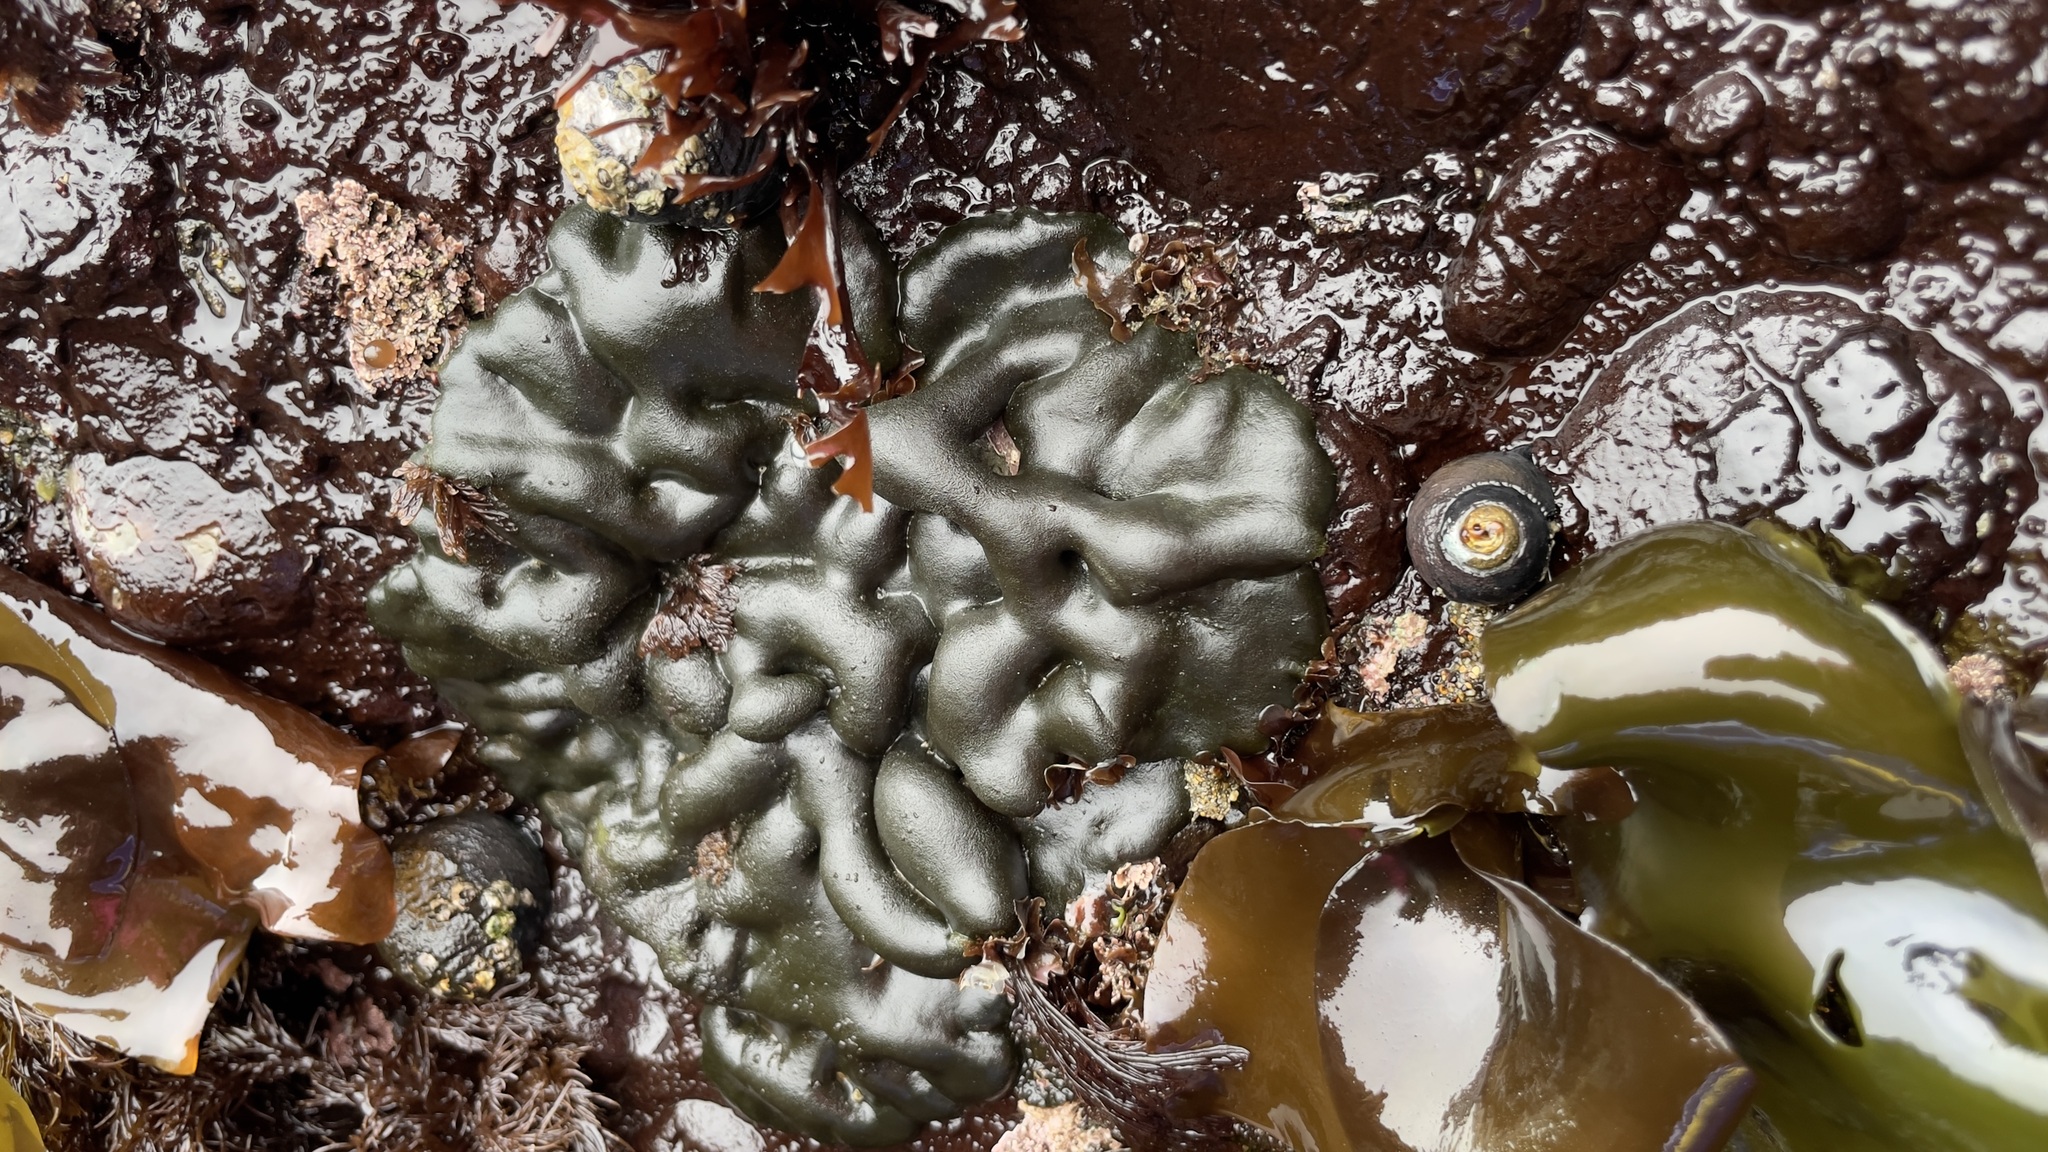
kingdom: Plantae
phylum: Chlorophyta
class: Ulvophyceae
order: Bryopsidales
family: Codiaceae
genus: Codium
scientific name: Codium setchellii
